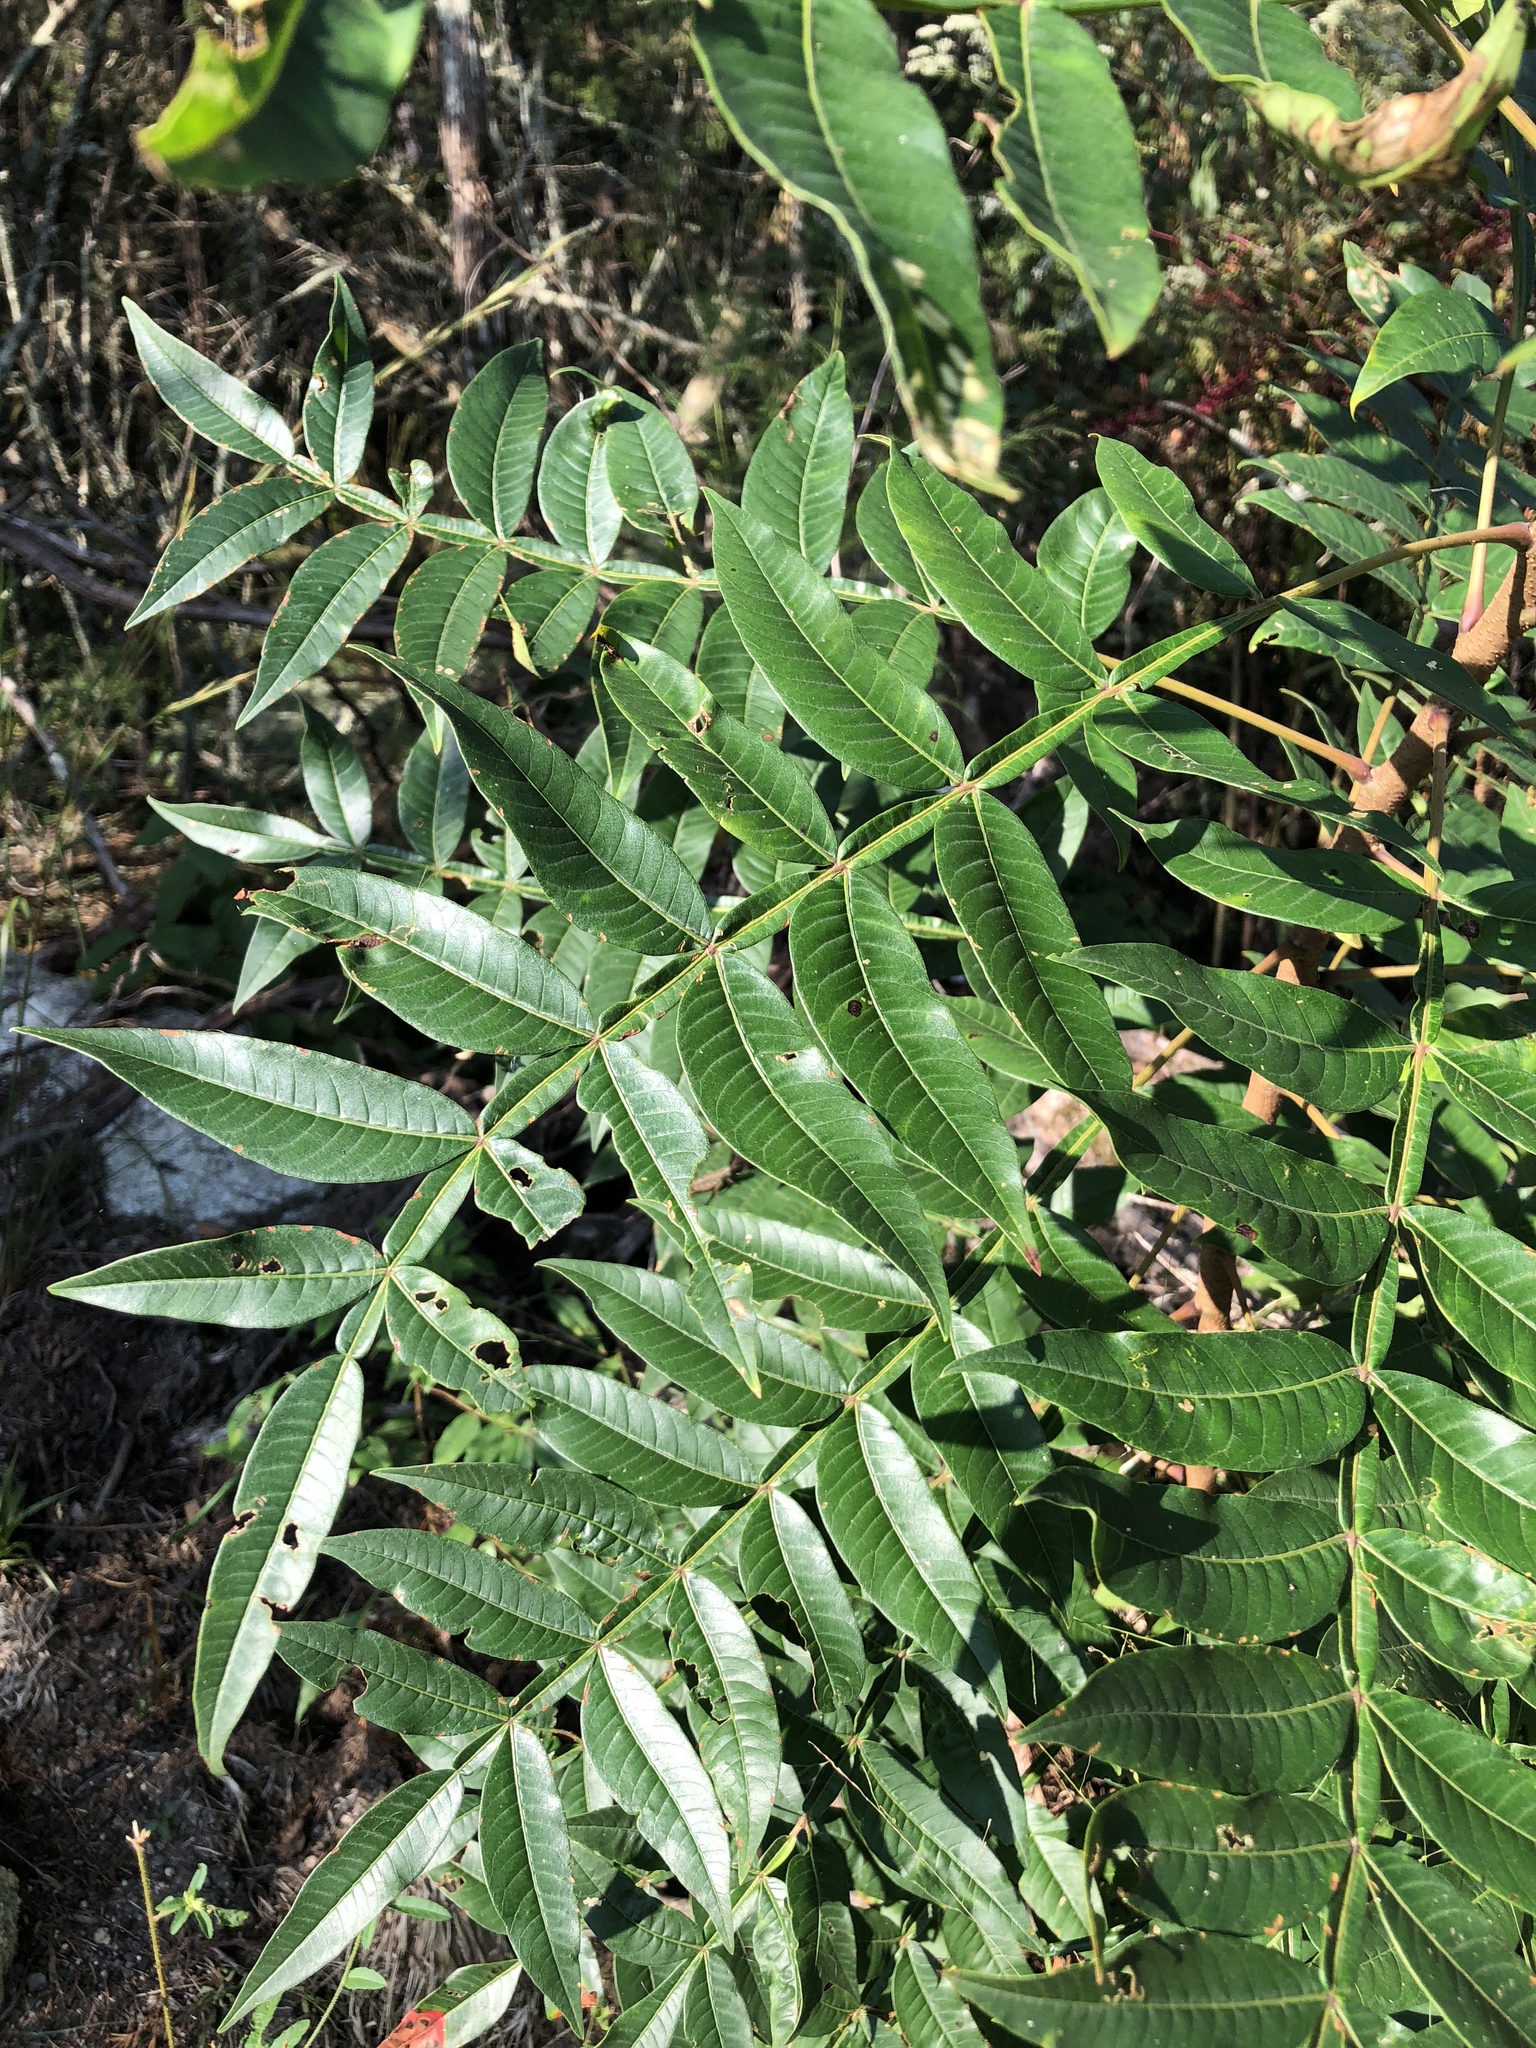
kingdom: Plantae
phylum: Tracheophyta
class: Magnoliopsida
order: Sapindales
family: Anacardiaceae
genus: Rhus
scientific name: Rhus copallina
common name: Shining sumac
